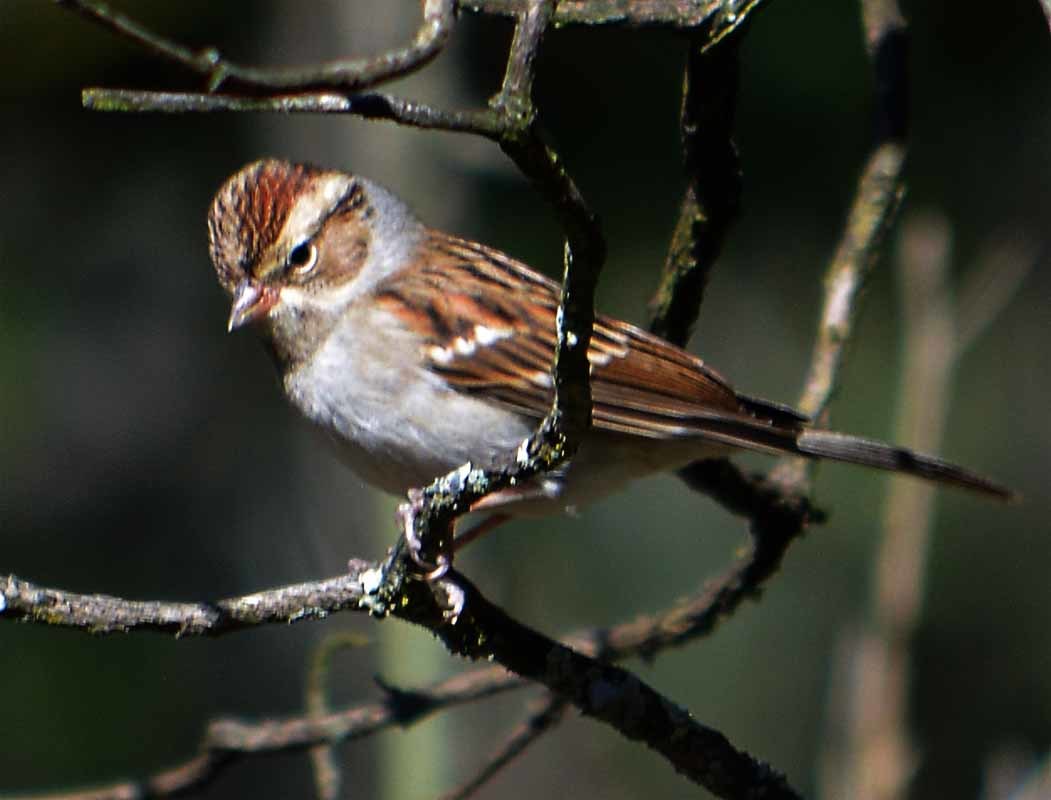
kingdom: Animalia
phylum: Chordata
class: Aves
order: Passeriformes
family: Passerellidae
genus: Spizella
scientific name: Spizella passerina
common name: Chipping sparrow
